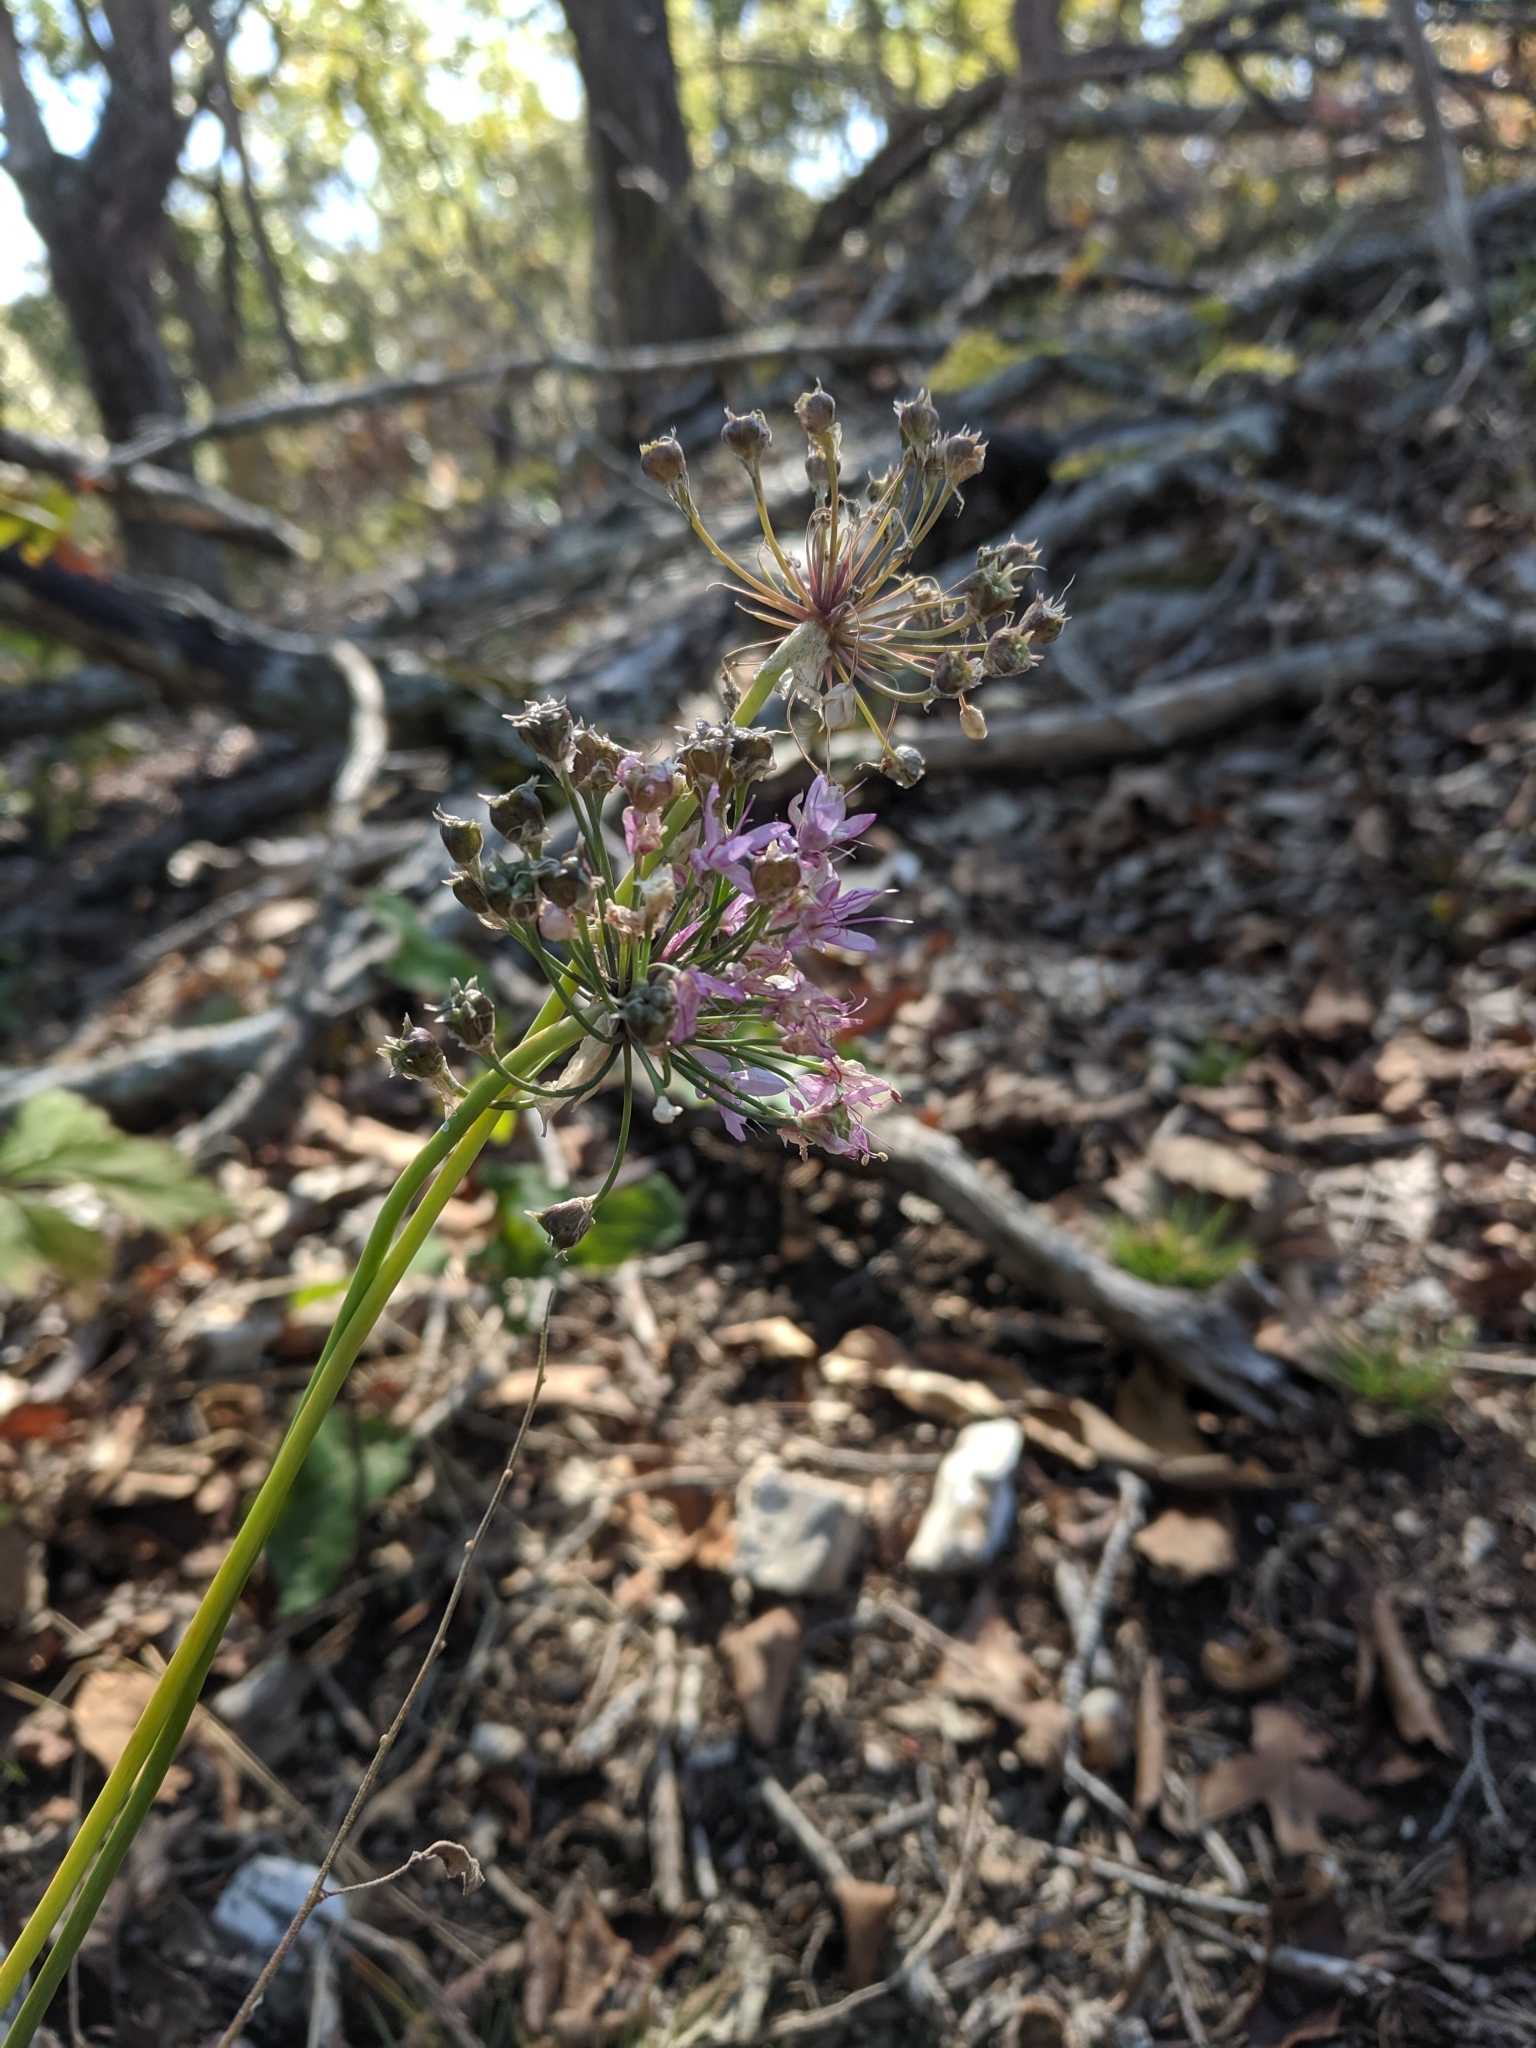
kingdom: Plantae
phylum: Tracheophyta
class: Liliopsida
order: Asparagales
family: Amaryllidaceae
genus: Allium
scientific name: Allium stellatum
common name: Autumn onion
